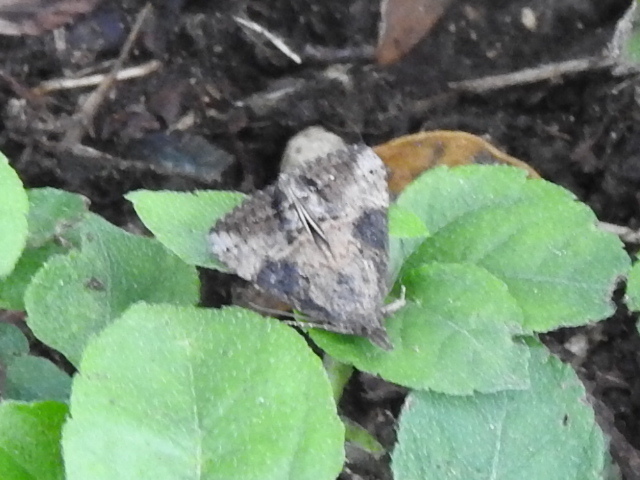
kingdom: Animalia
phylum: Arthropoda
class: Insecta
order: Lepidoptera
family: Erebidae
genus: Hypena
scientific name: Hypena scabra
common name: Green cloverworm
